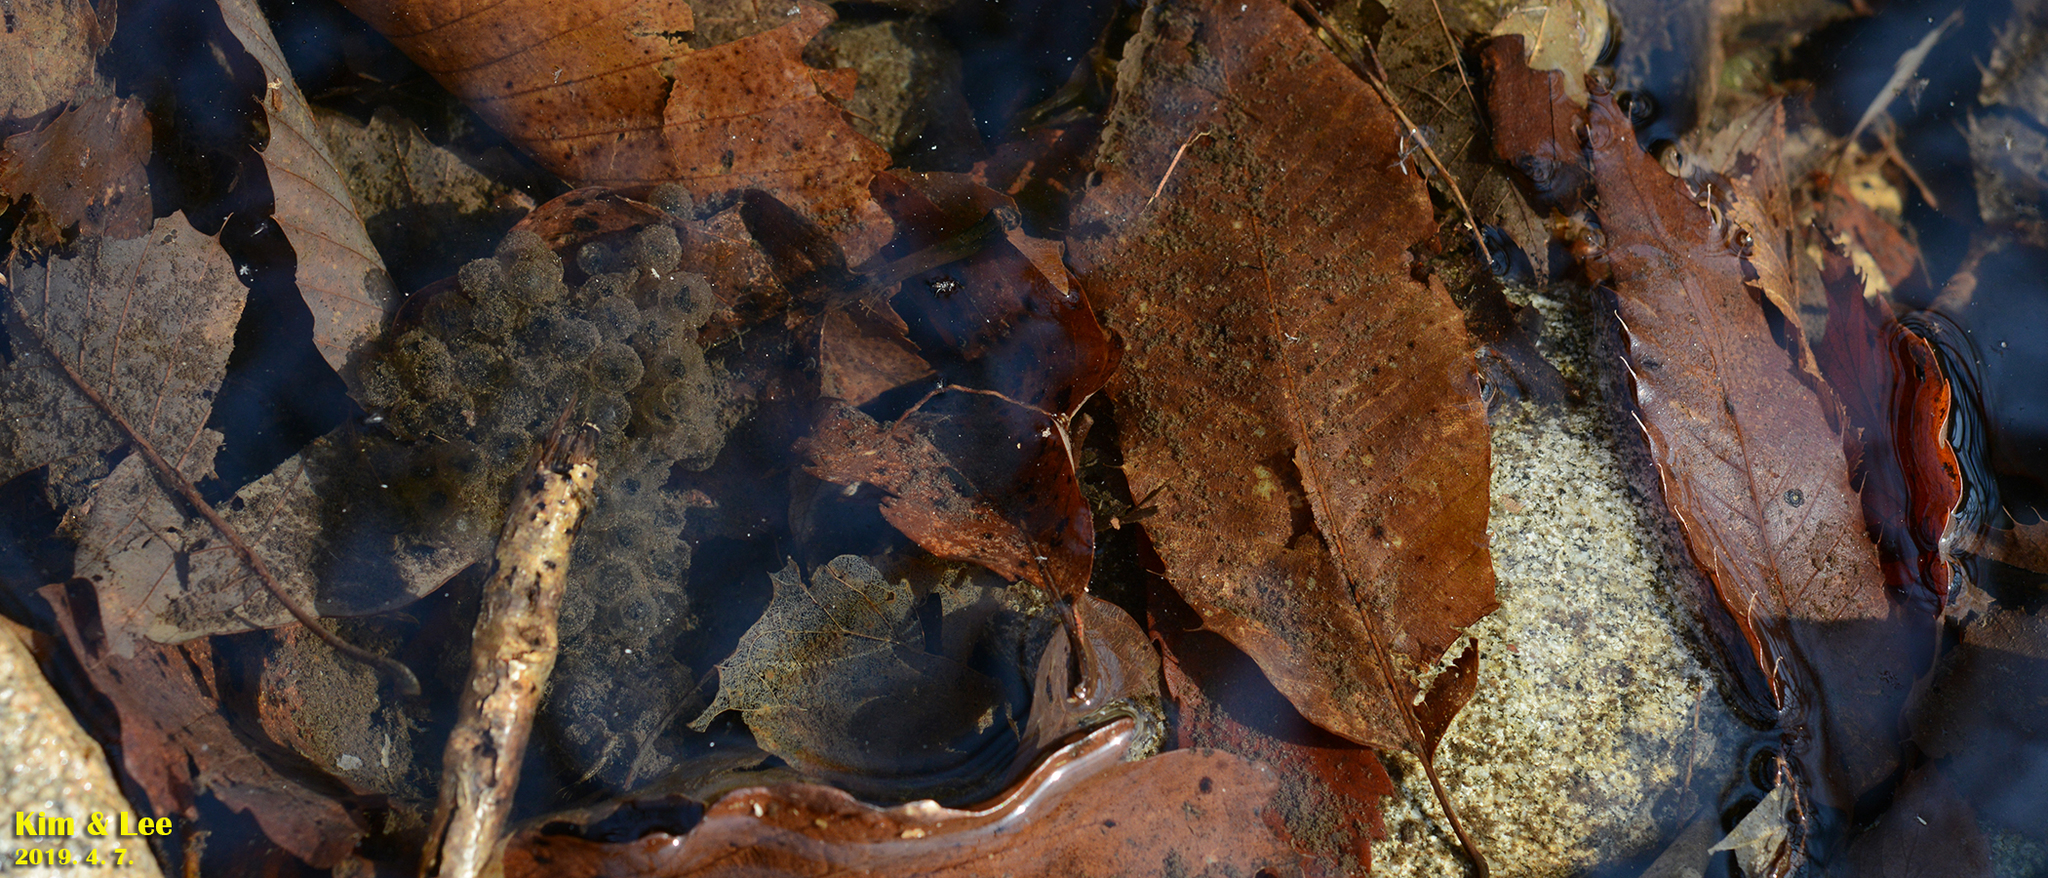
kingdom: Animalia
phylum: Chordata
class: Amphibia
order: Anura
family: Ranidae
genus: Rana
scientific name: Rana huanrenensis
